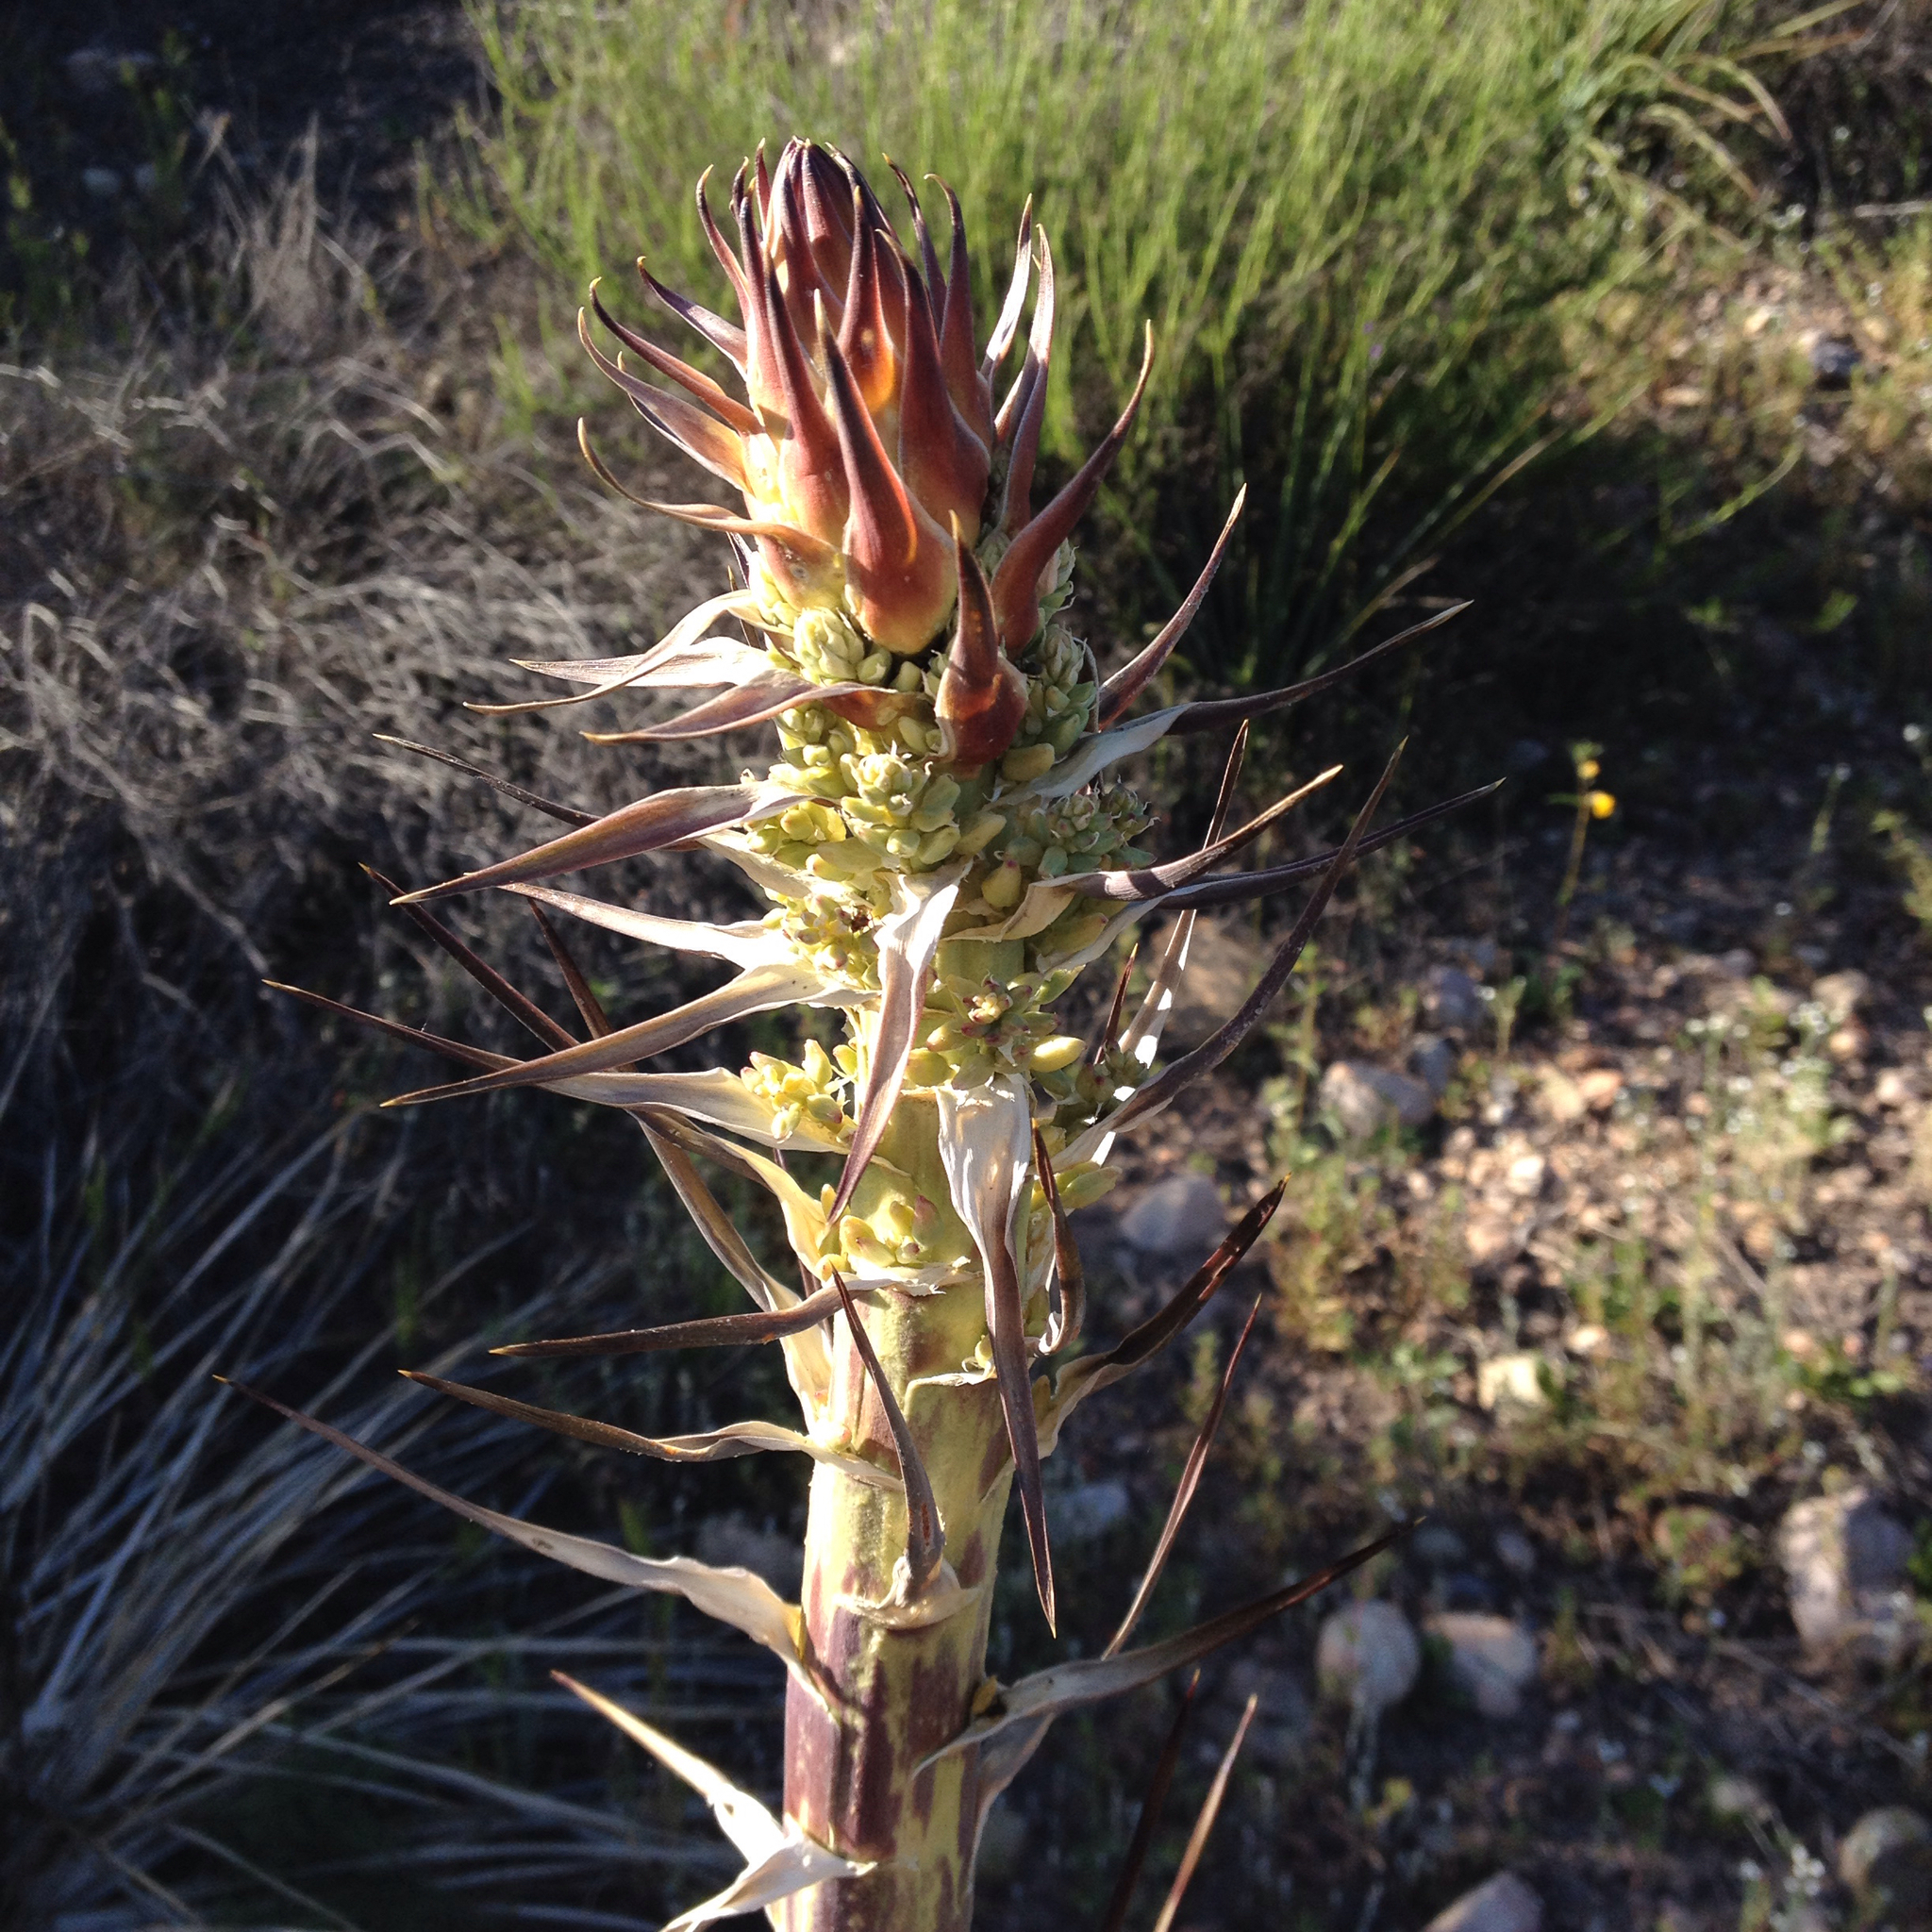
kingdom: Plantae
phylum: Tracheophyta
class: Liliopsida
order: Asparagales
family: Asparagaceae
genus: Hesperoyucca
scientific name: Hesperoyucca whipplei
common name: Our lord's-candle
